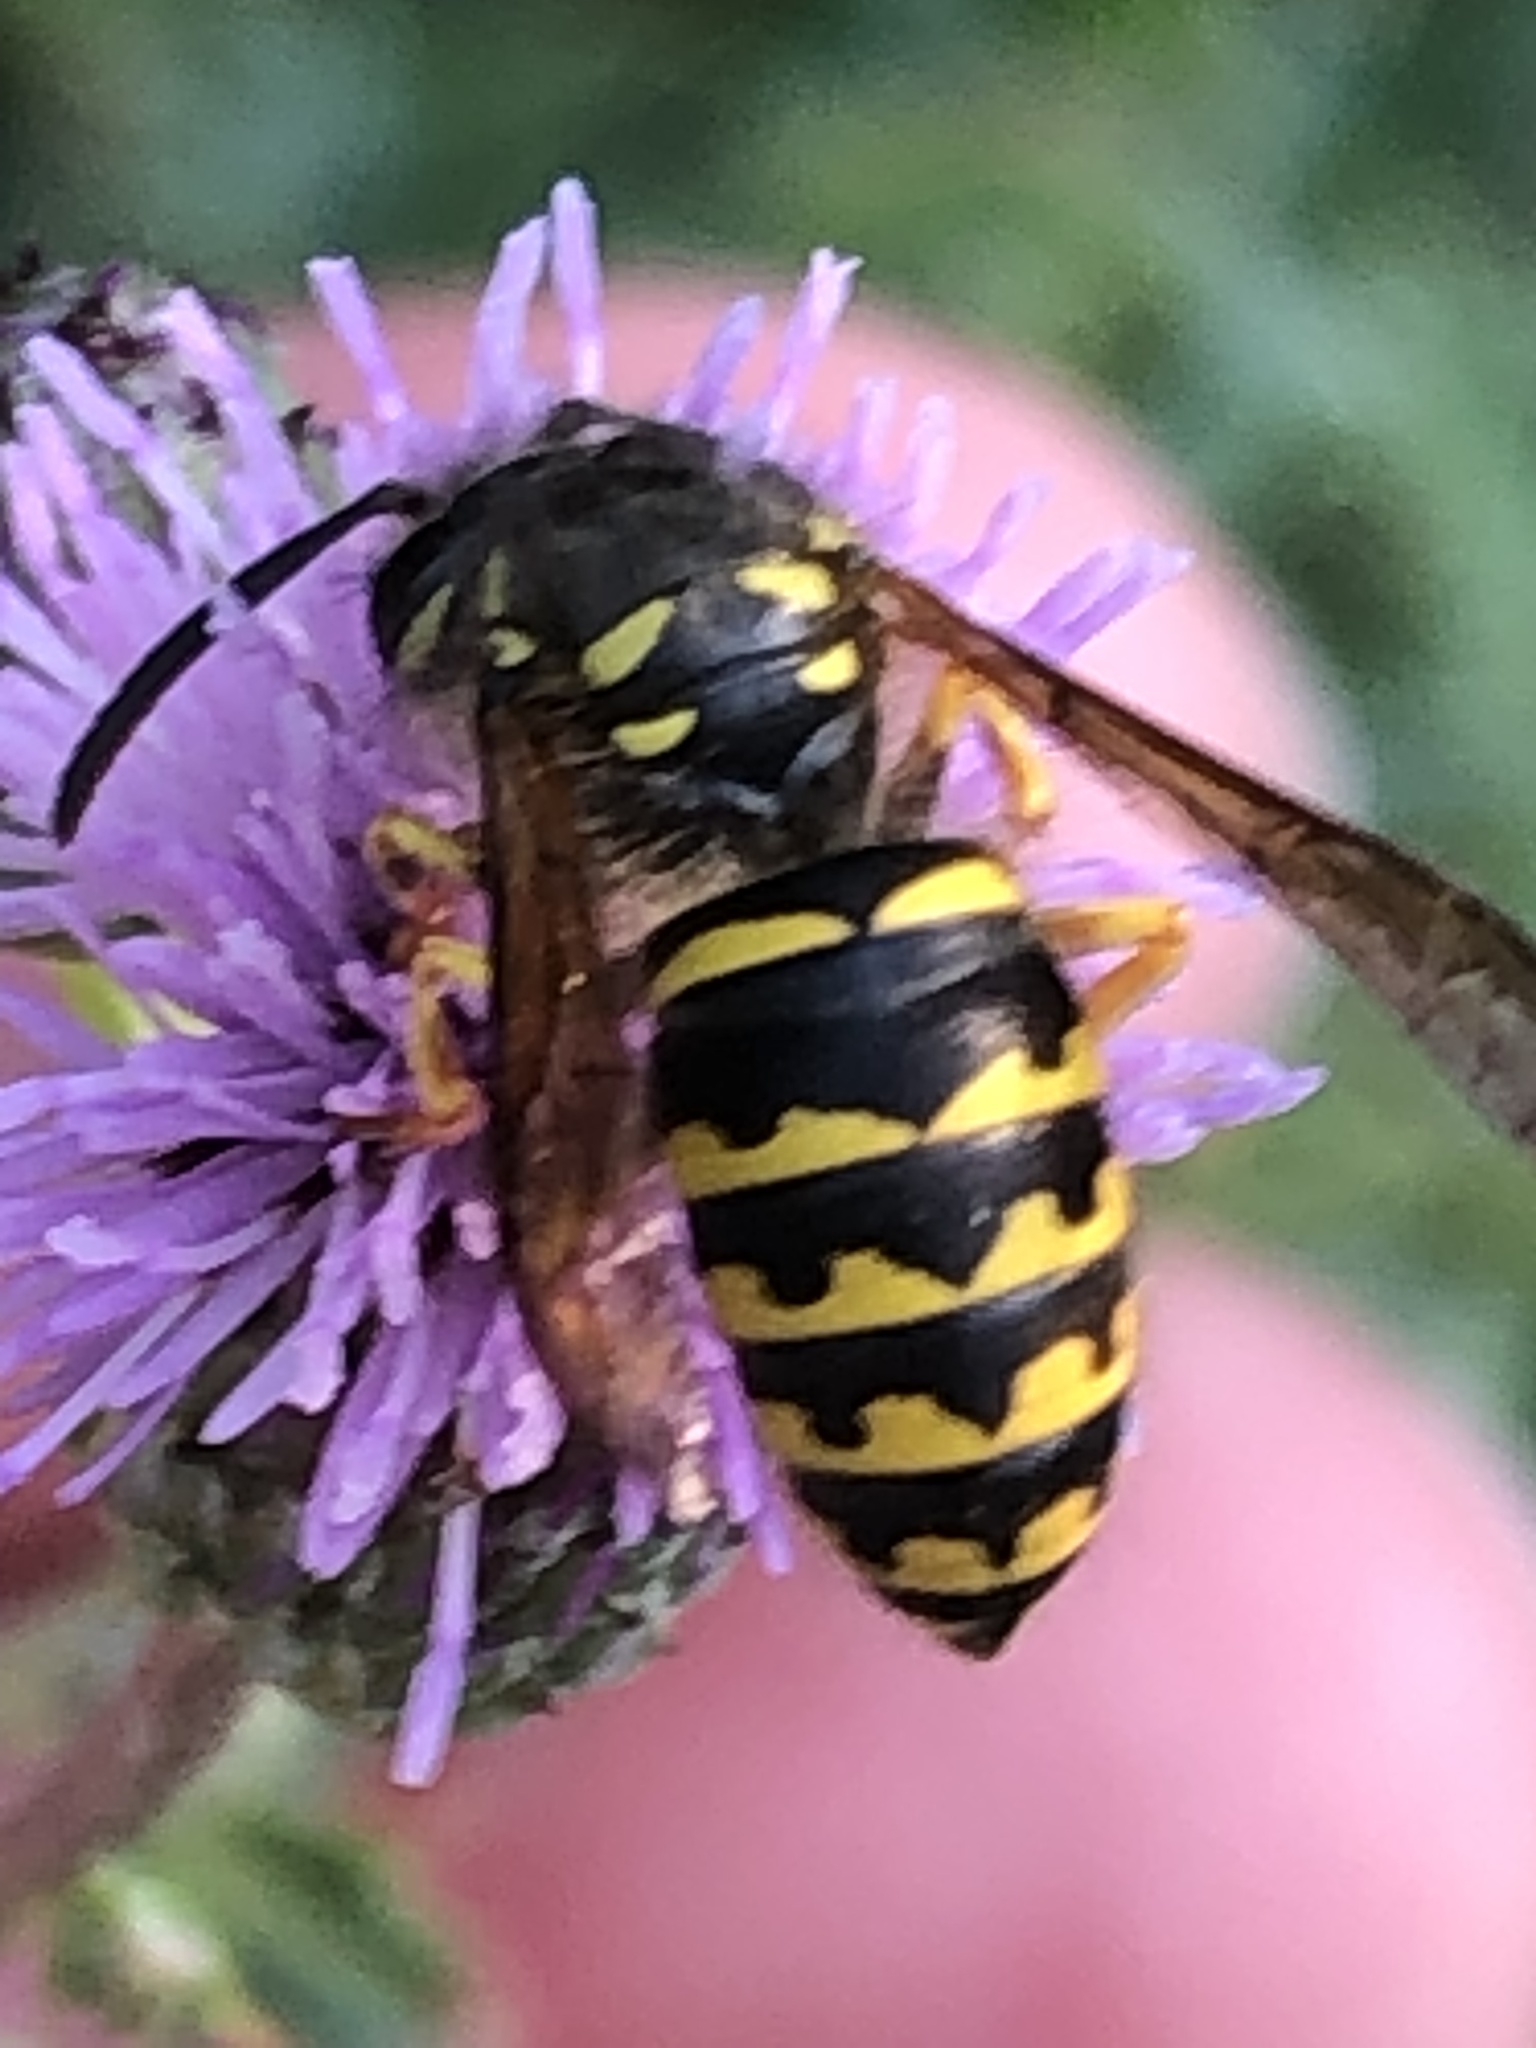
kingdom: Animalia
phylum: Arthropoda
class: Insecta
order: Hymenoptera
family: Vespidae
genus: Dolichovespula
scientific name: Dolichovespula arenaria
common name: Aerial yellowjacket
